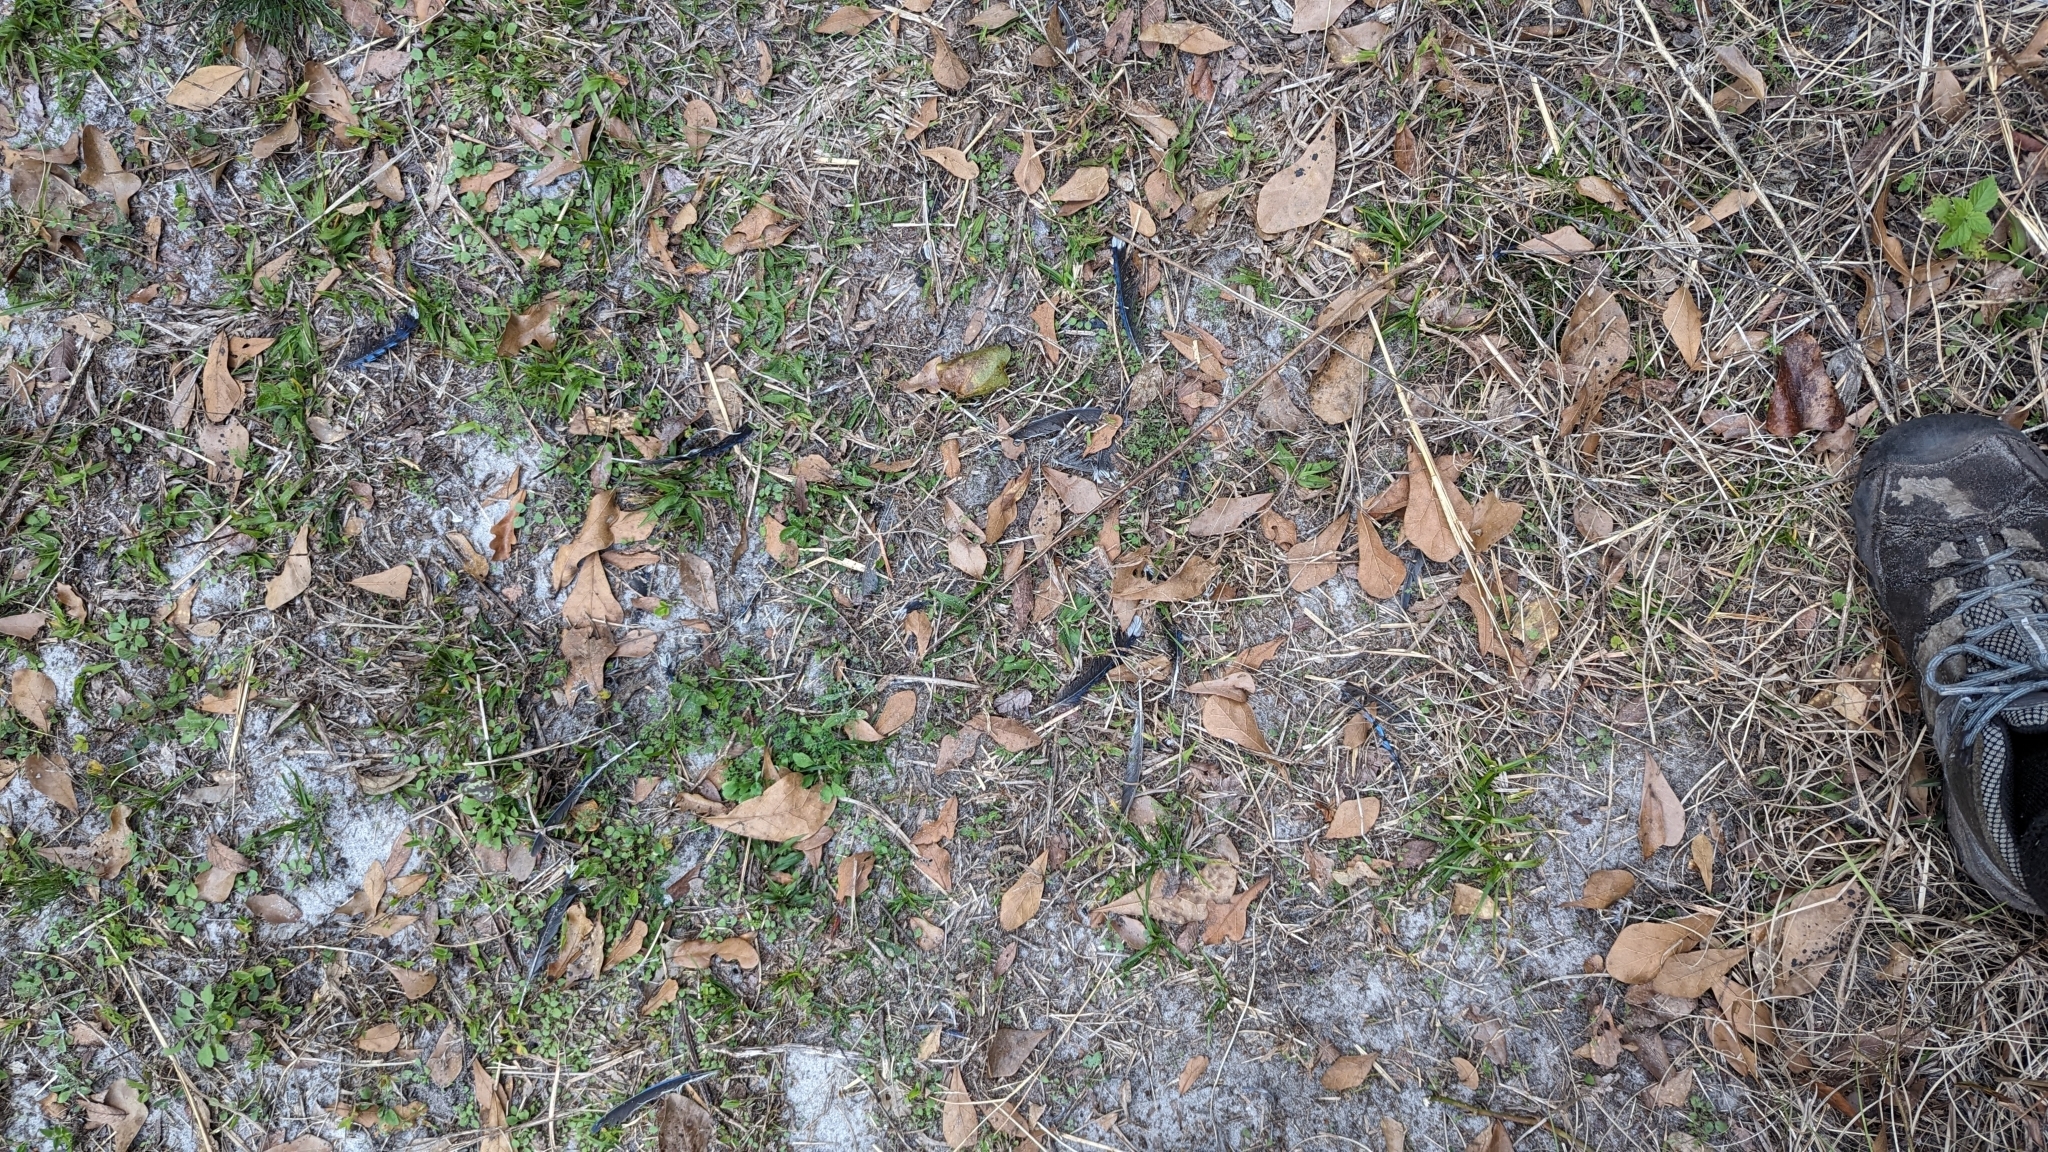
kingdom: Animalia
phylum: Chordata
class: Aves
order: Passeriformes
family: Corvidae
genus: Cyanocitta
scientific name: Cyanocitta cristata
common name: Blue jay
